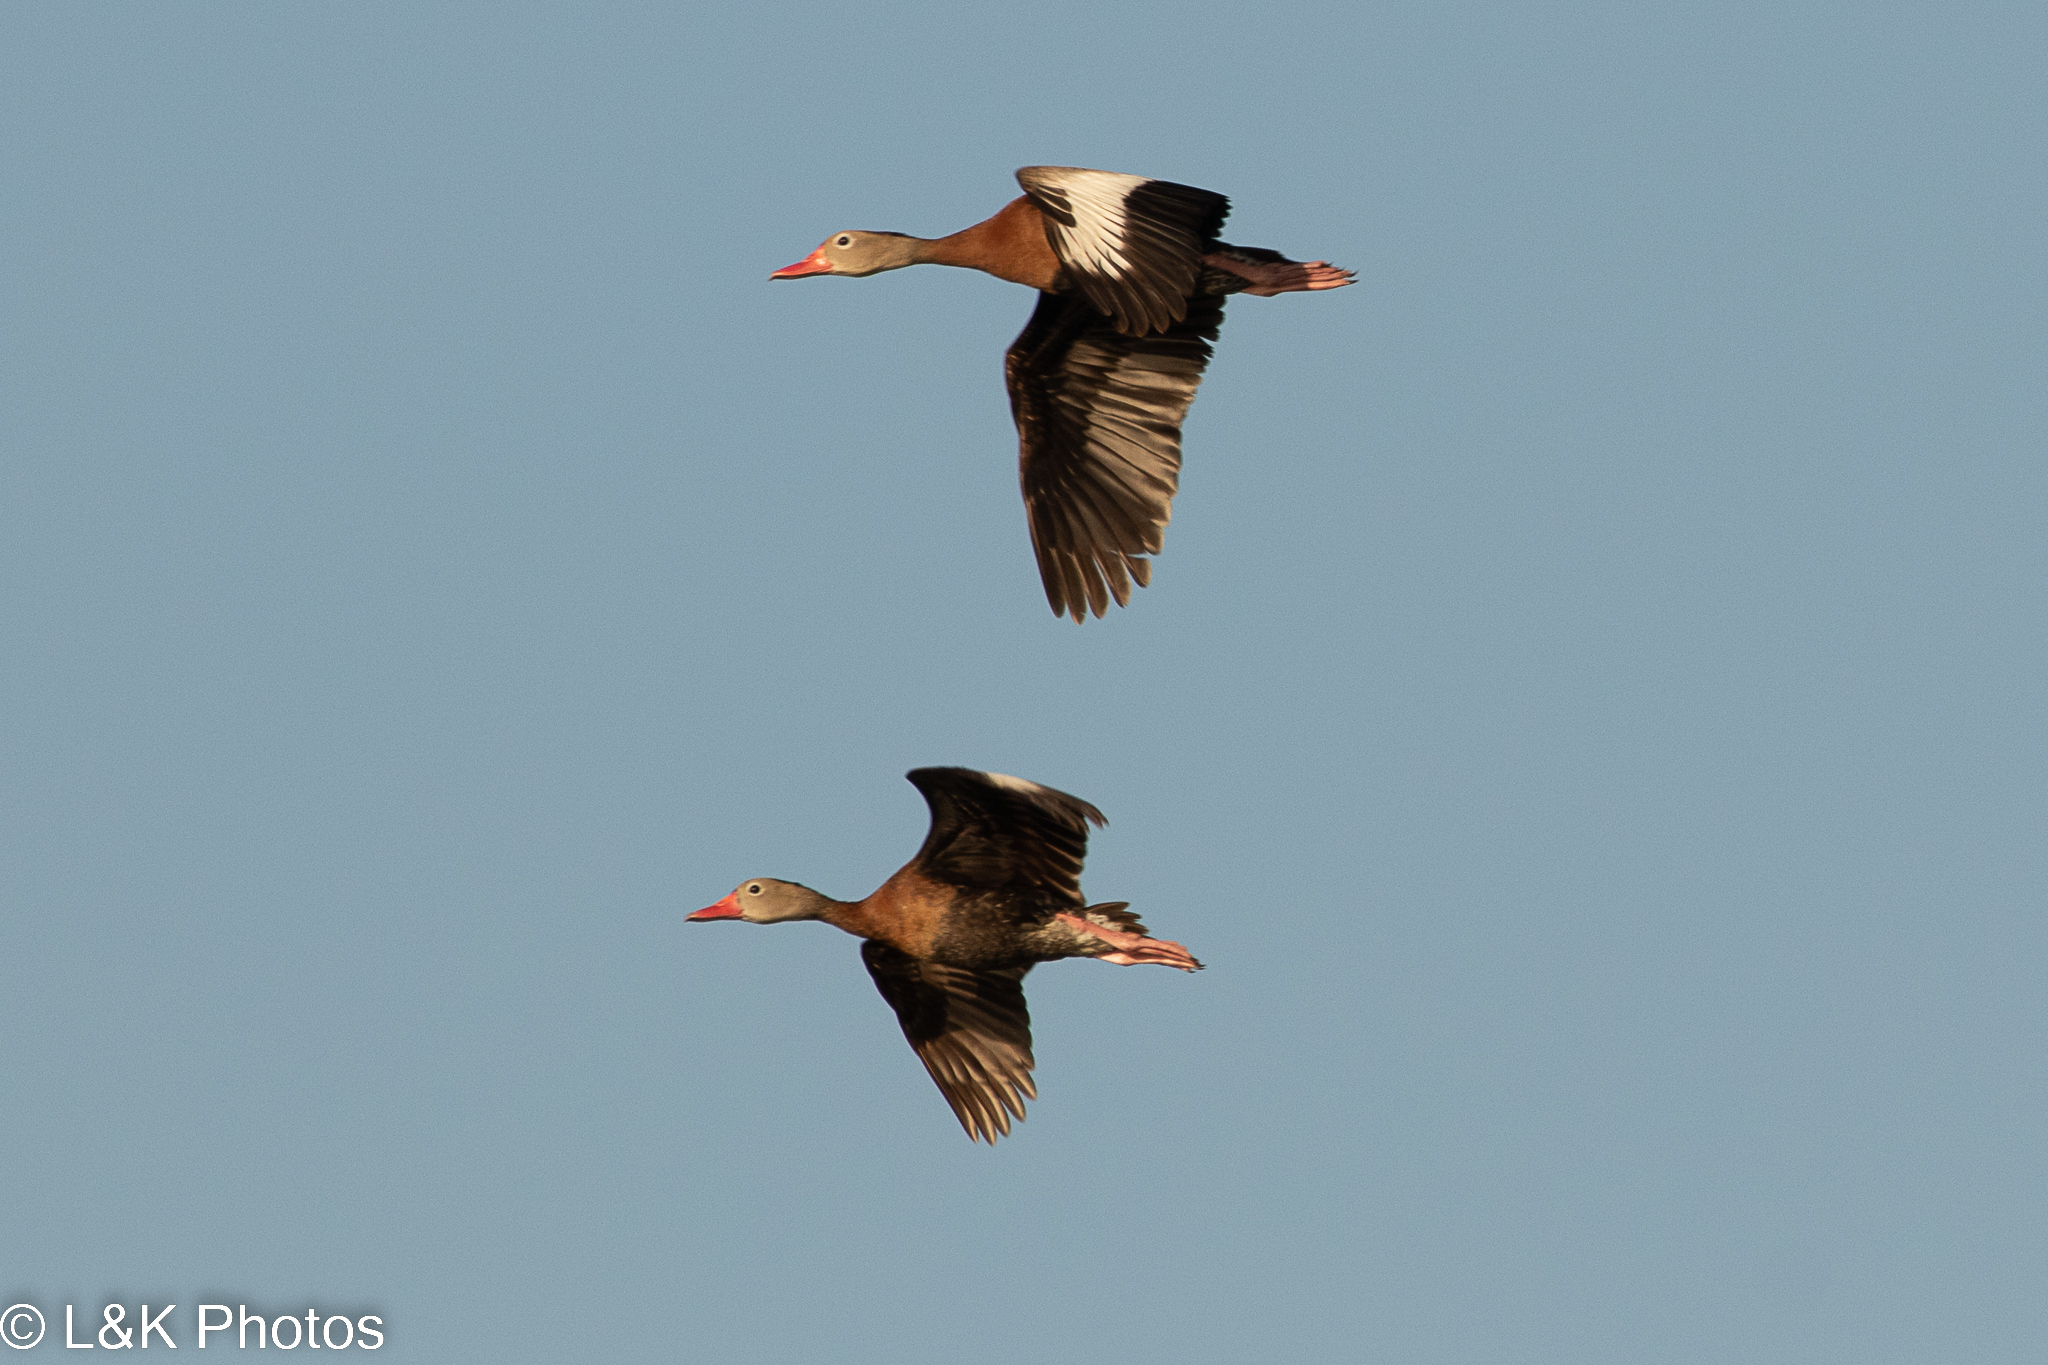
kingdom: Animalia
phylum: Chordata
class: Aves
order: Anseriformes
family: Anatidae
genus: Dendrocygna
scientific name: Dendrocygna autumnalis
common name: Black-bellied whistling duck
